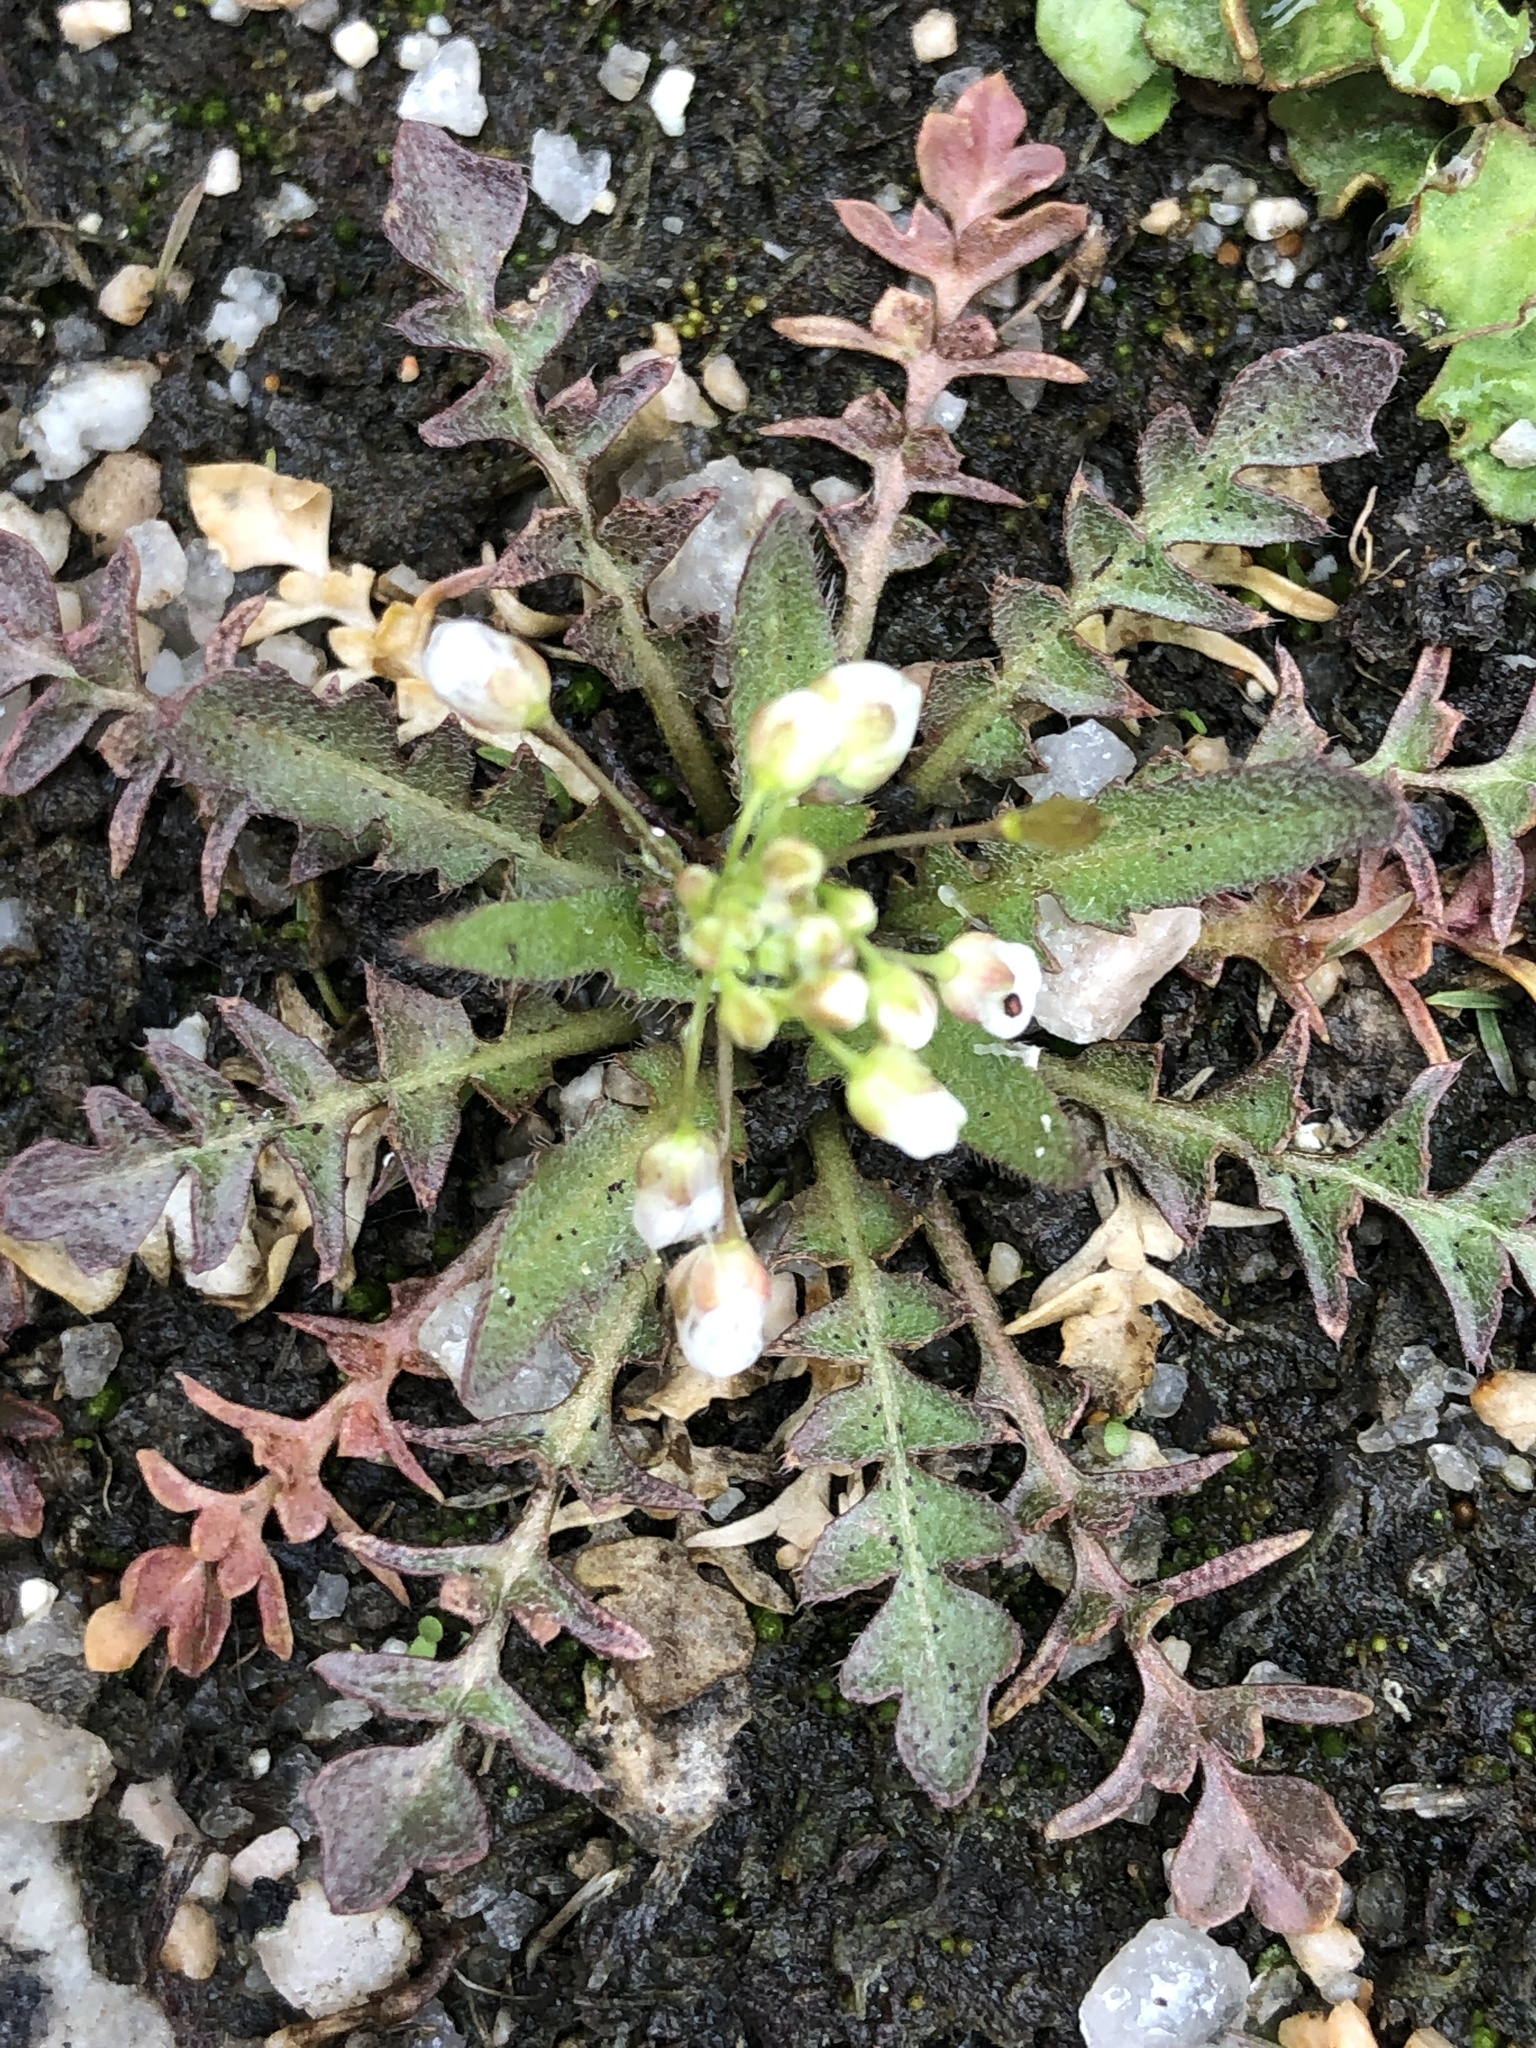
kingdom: Plantae
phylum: Tracheophyta
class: Magnoliopsida
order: Brassicales
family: Brassicaceae
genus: Capsella
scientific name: Capsella bursa-pastoris
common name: Shepherd's purse
